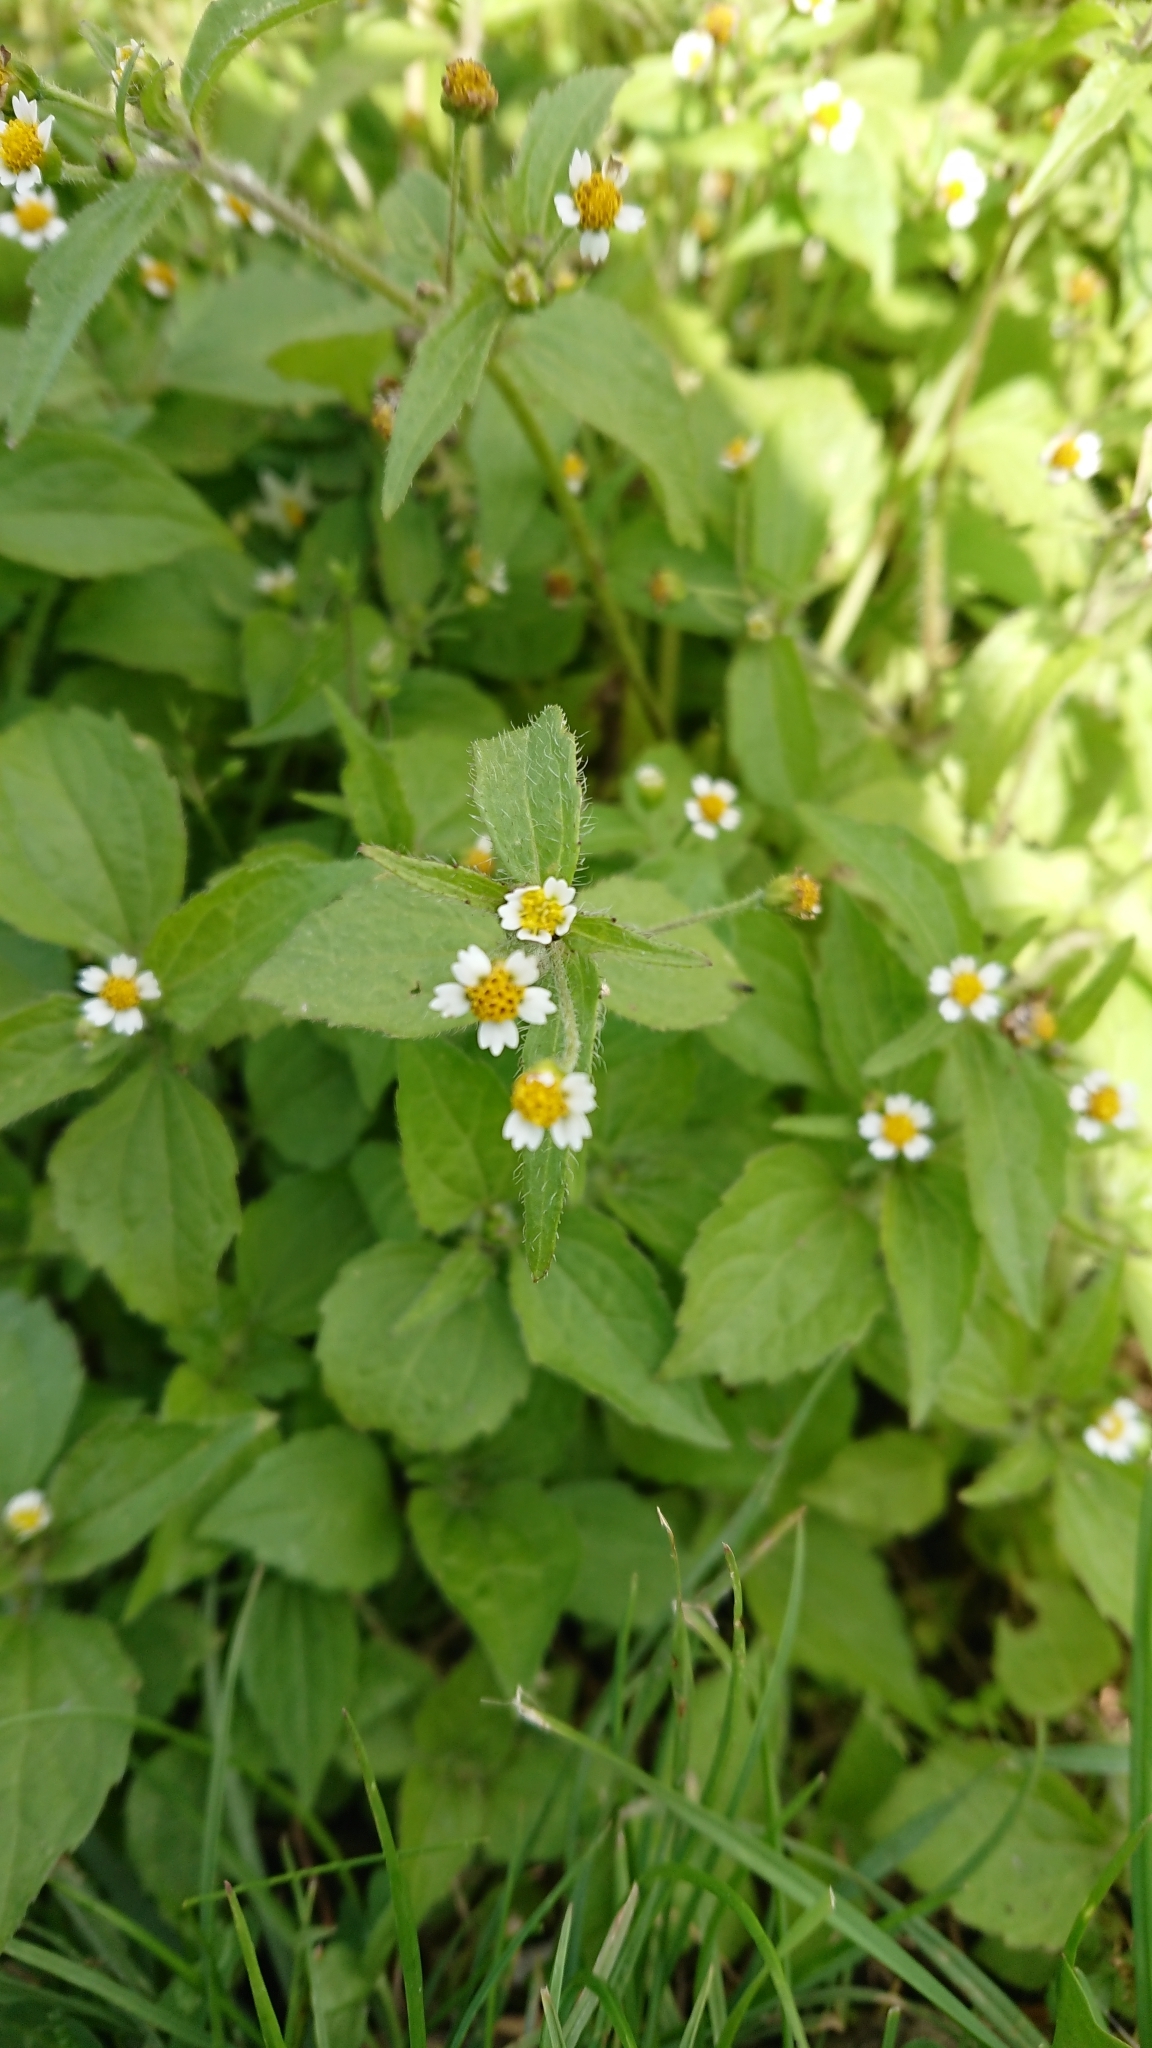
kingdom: Plantae
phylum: Tracheophyta
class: Magnoliopsida
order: Asterales
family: Asteraceae
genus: Galinsoga
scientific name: Galinsoga quadriradiata
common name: Shaggy soldier
